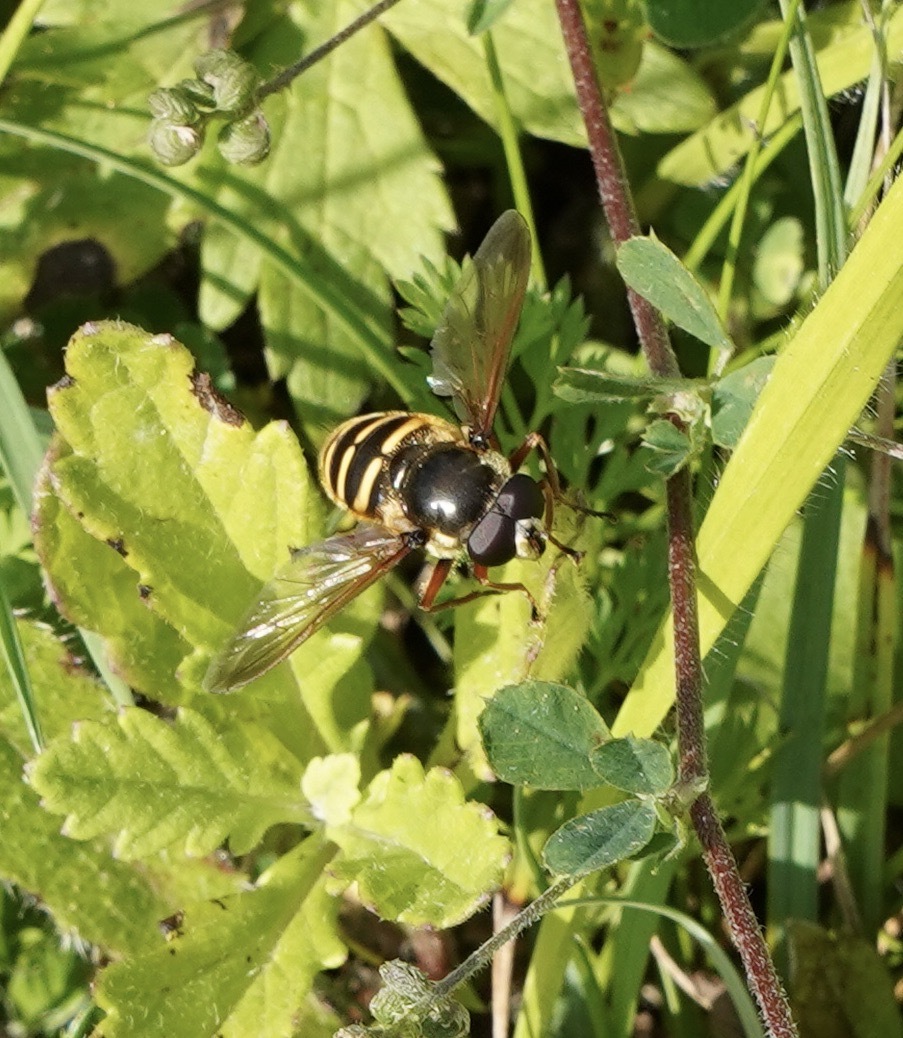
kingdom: Animalia
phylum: Arthropoda
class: Insecta
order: Diptera
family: Syrphidae
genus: Sericomyia
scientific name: Sericomyia silentis
